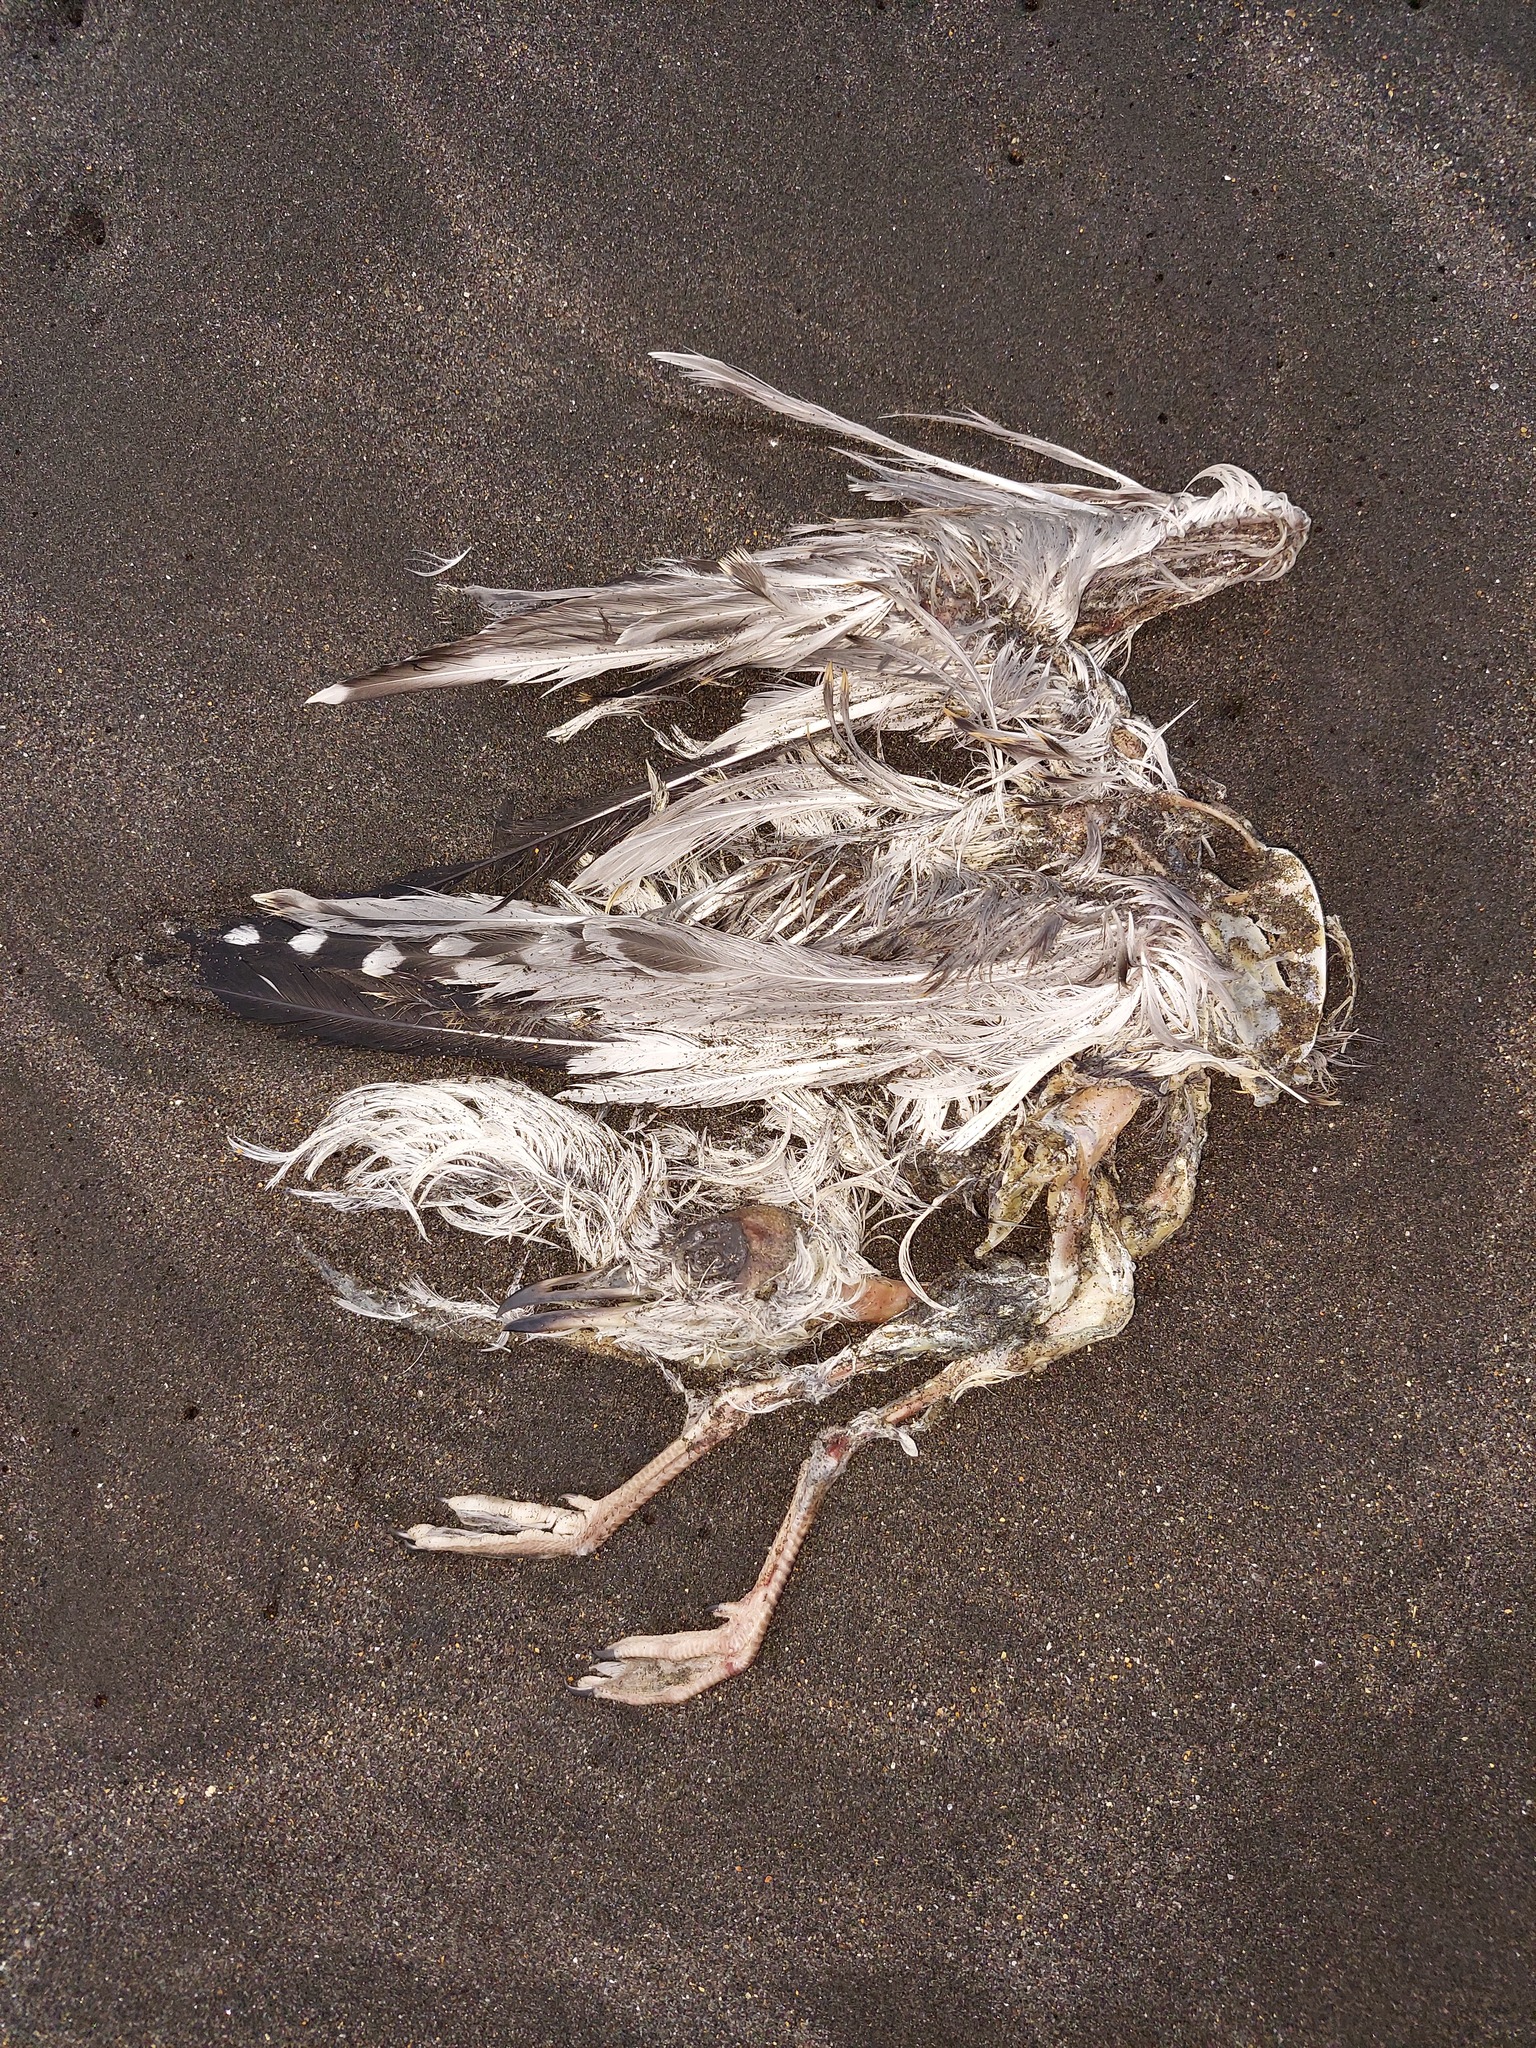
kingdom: Animalia
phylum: Chordata
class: Aves
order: Charadriiformes
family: Laridae
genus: Chroicocephalus
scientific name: Chroicocephalus novaehollandiae
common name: Silver gull
